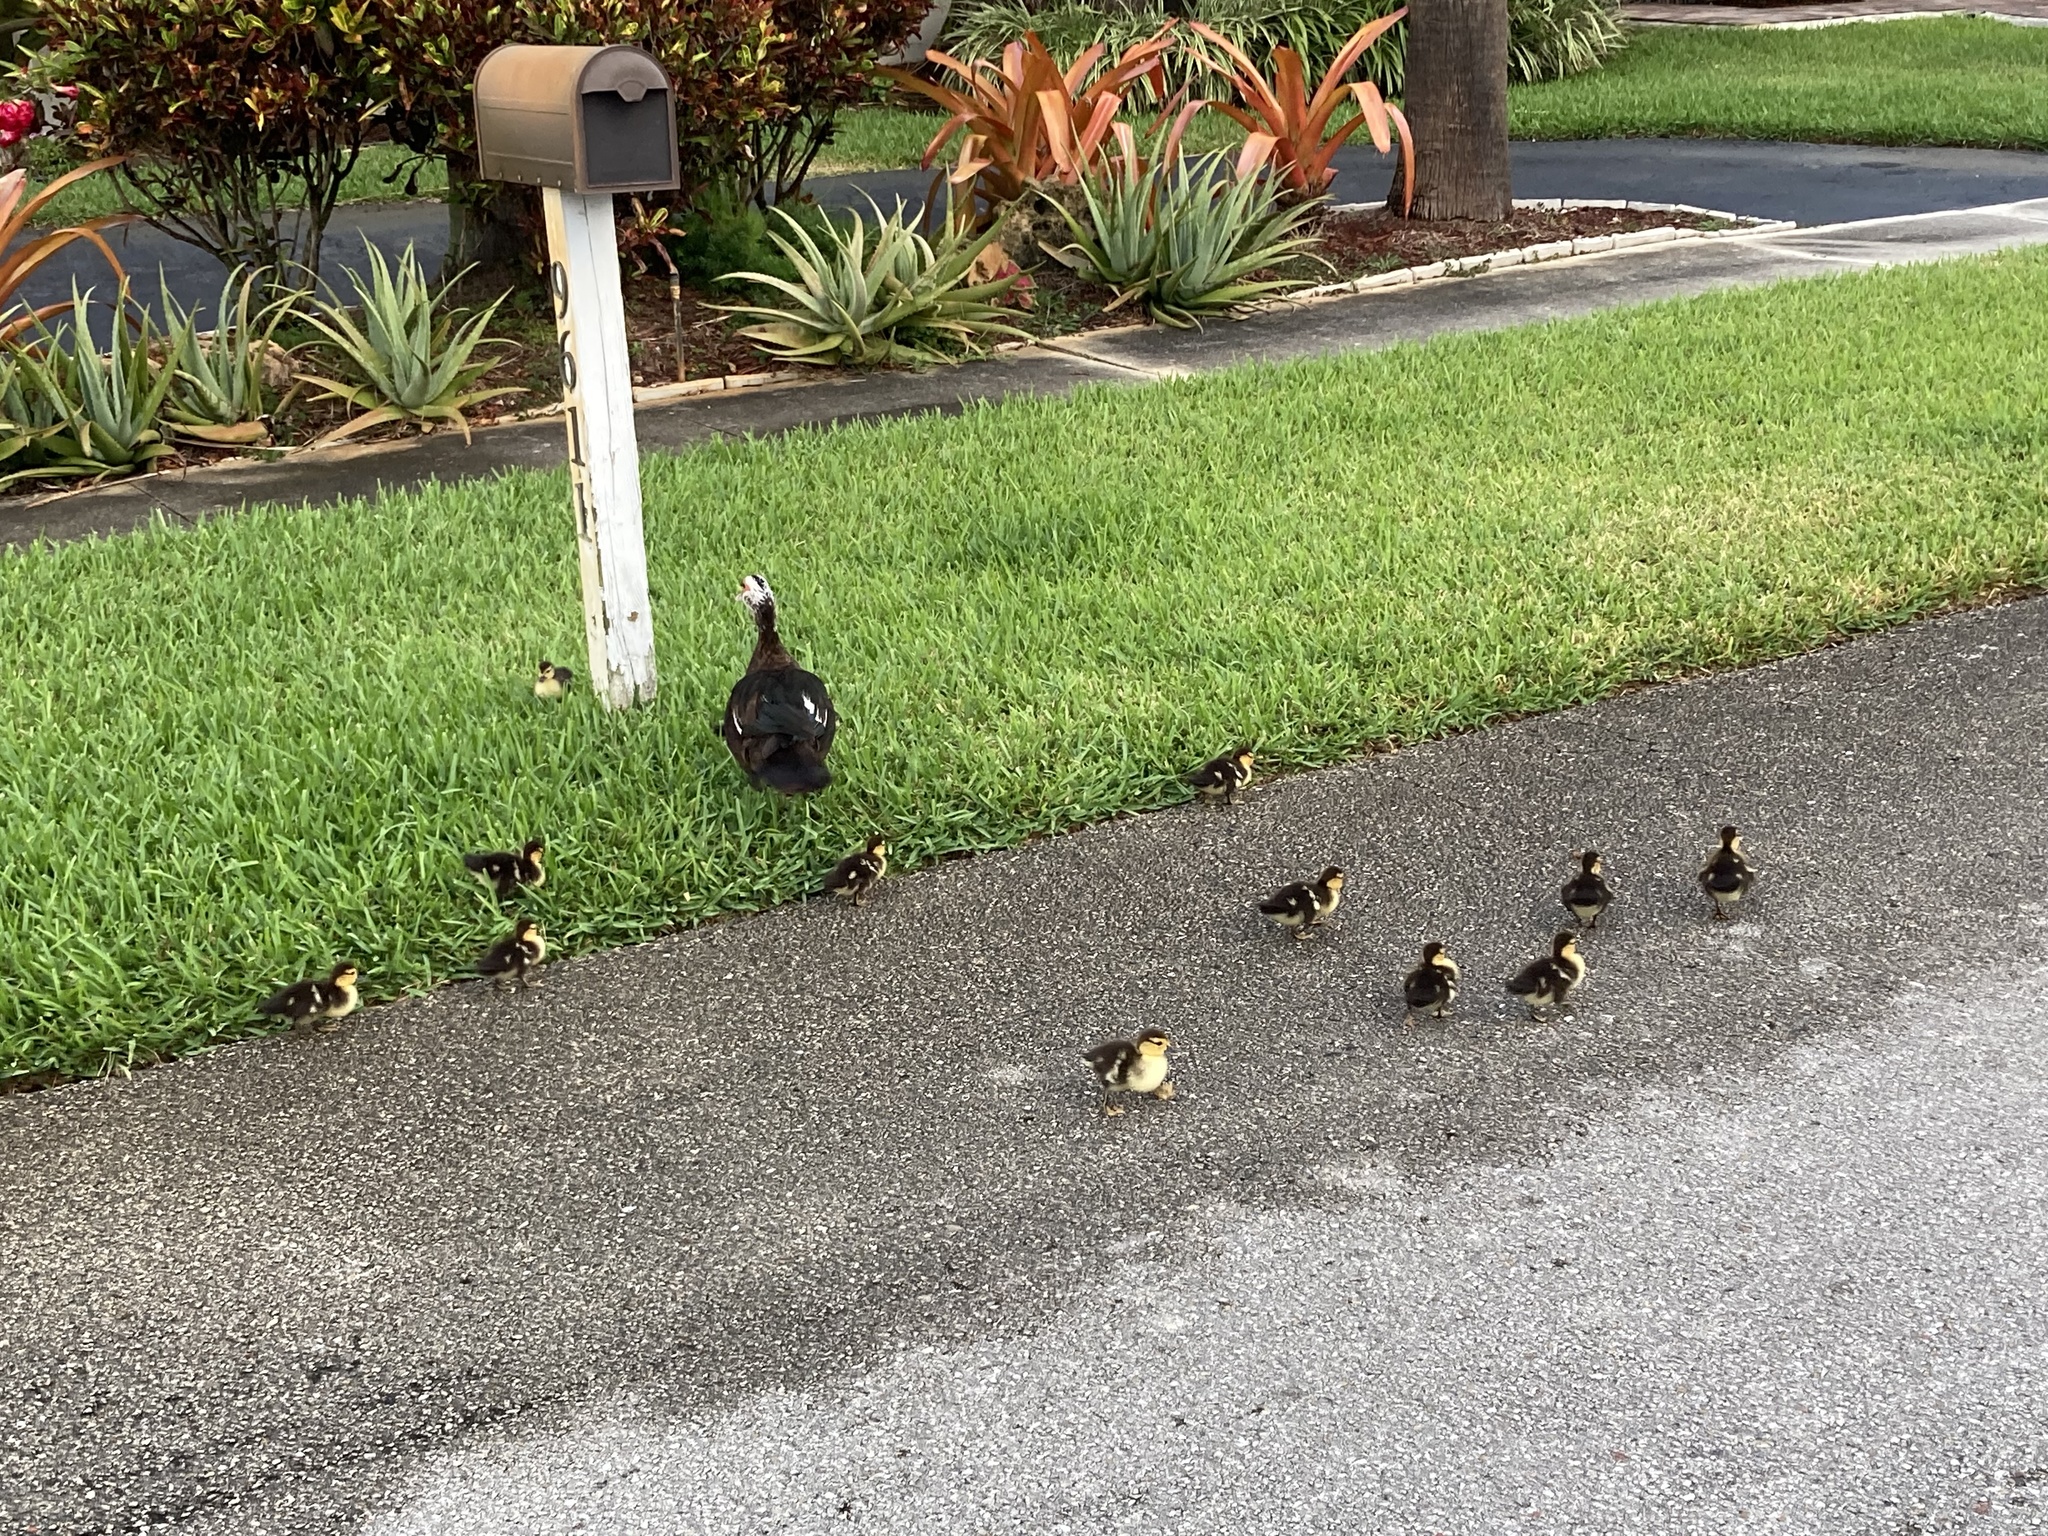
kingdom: Animalia
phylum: Chordata
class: Aves
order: Anseriformes
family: Anatidae
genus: Cairina
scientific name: Cairina moschata
